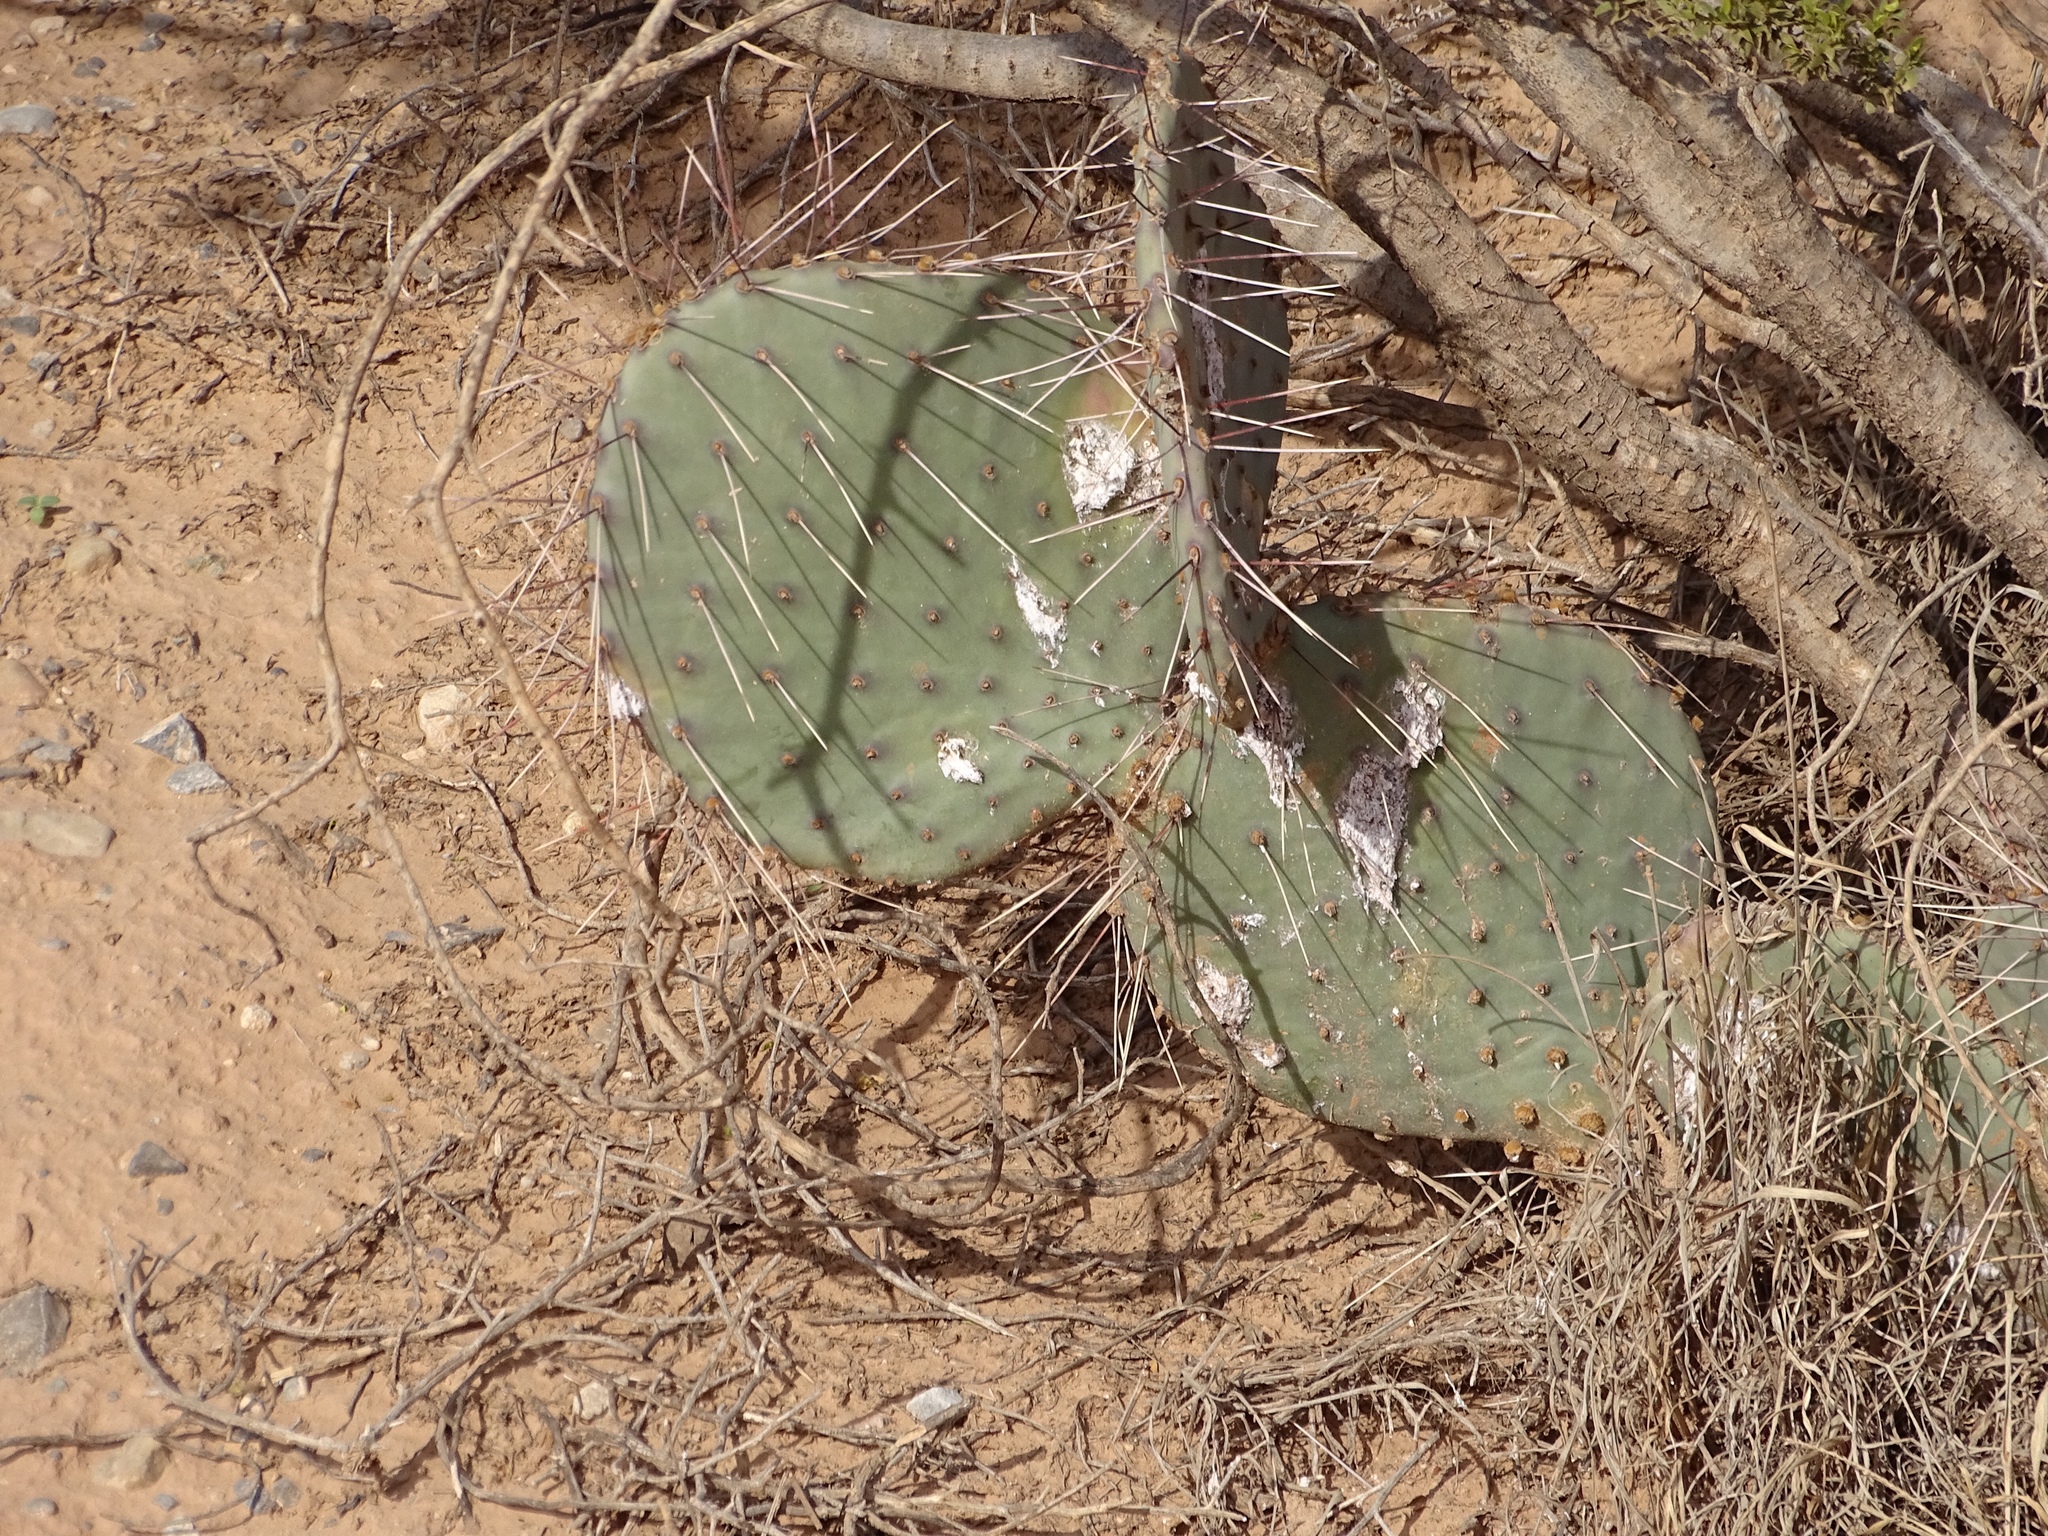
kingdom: Plantae
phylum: Tracheophyta
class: Magnoliopsida
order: Caryophyllales
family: Cactaceae
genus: Opuntia
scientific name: Opuntia phaeacantha
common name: New mexico prickly-pear
